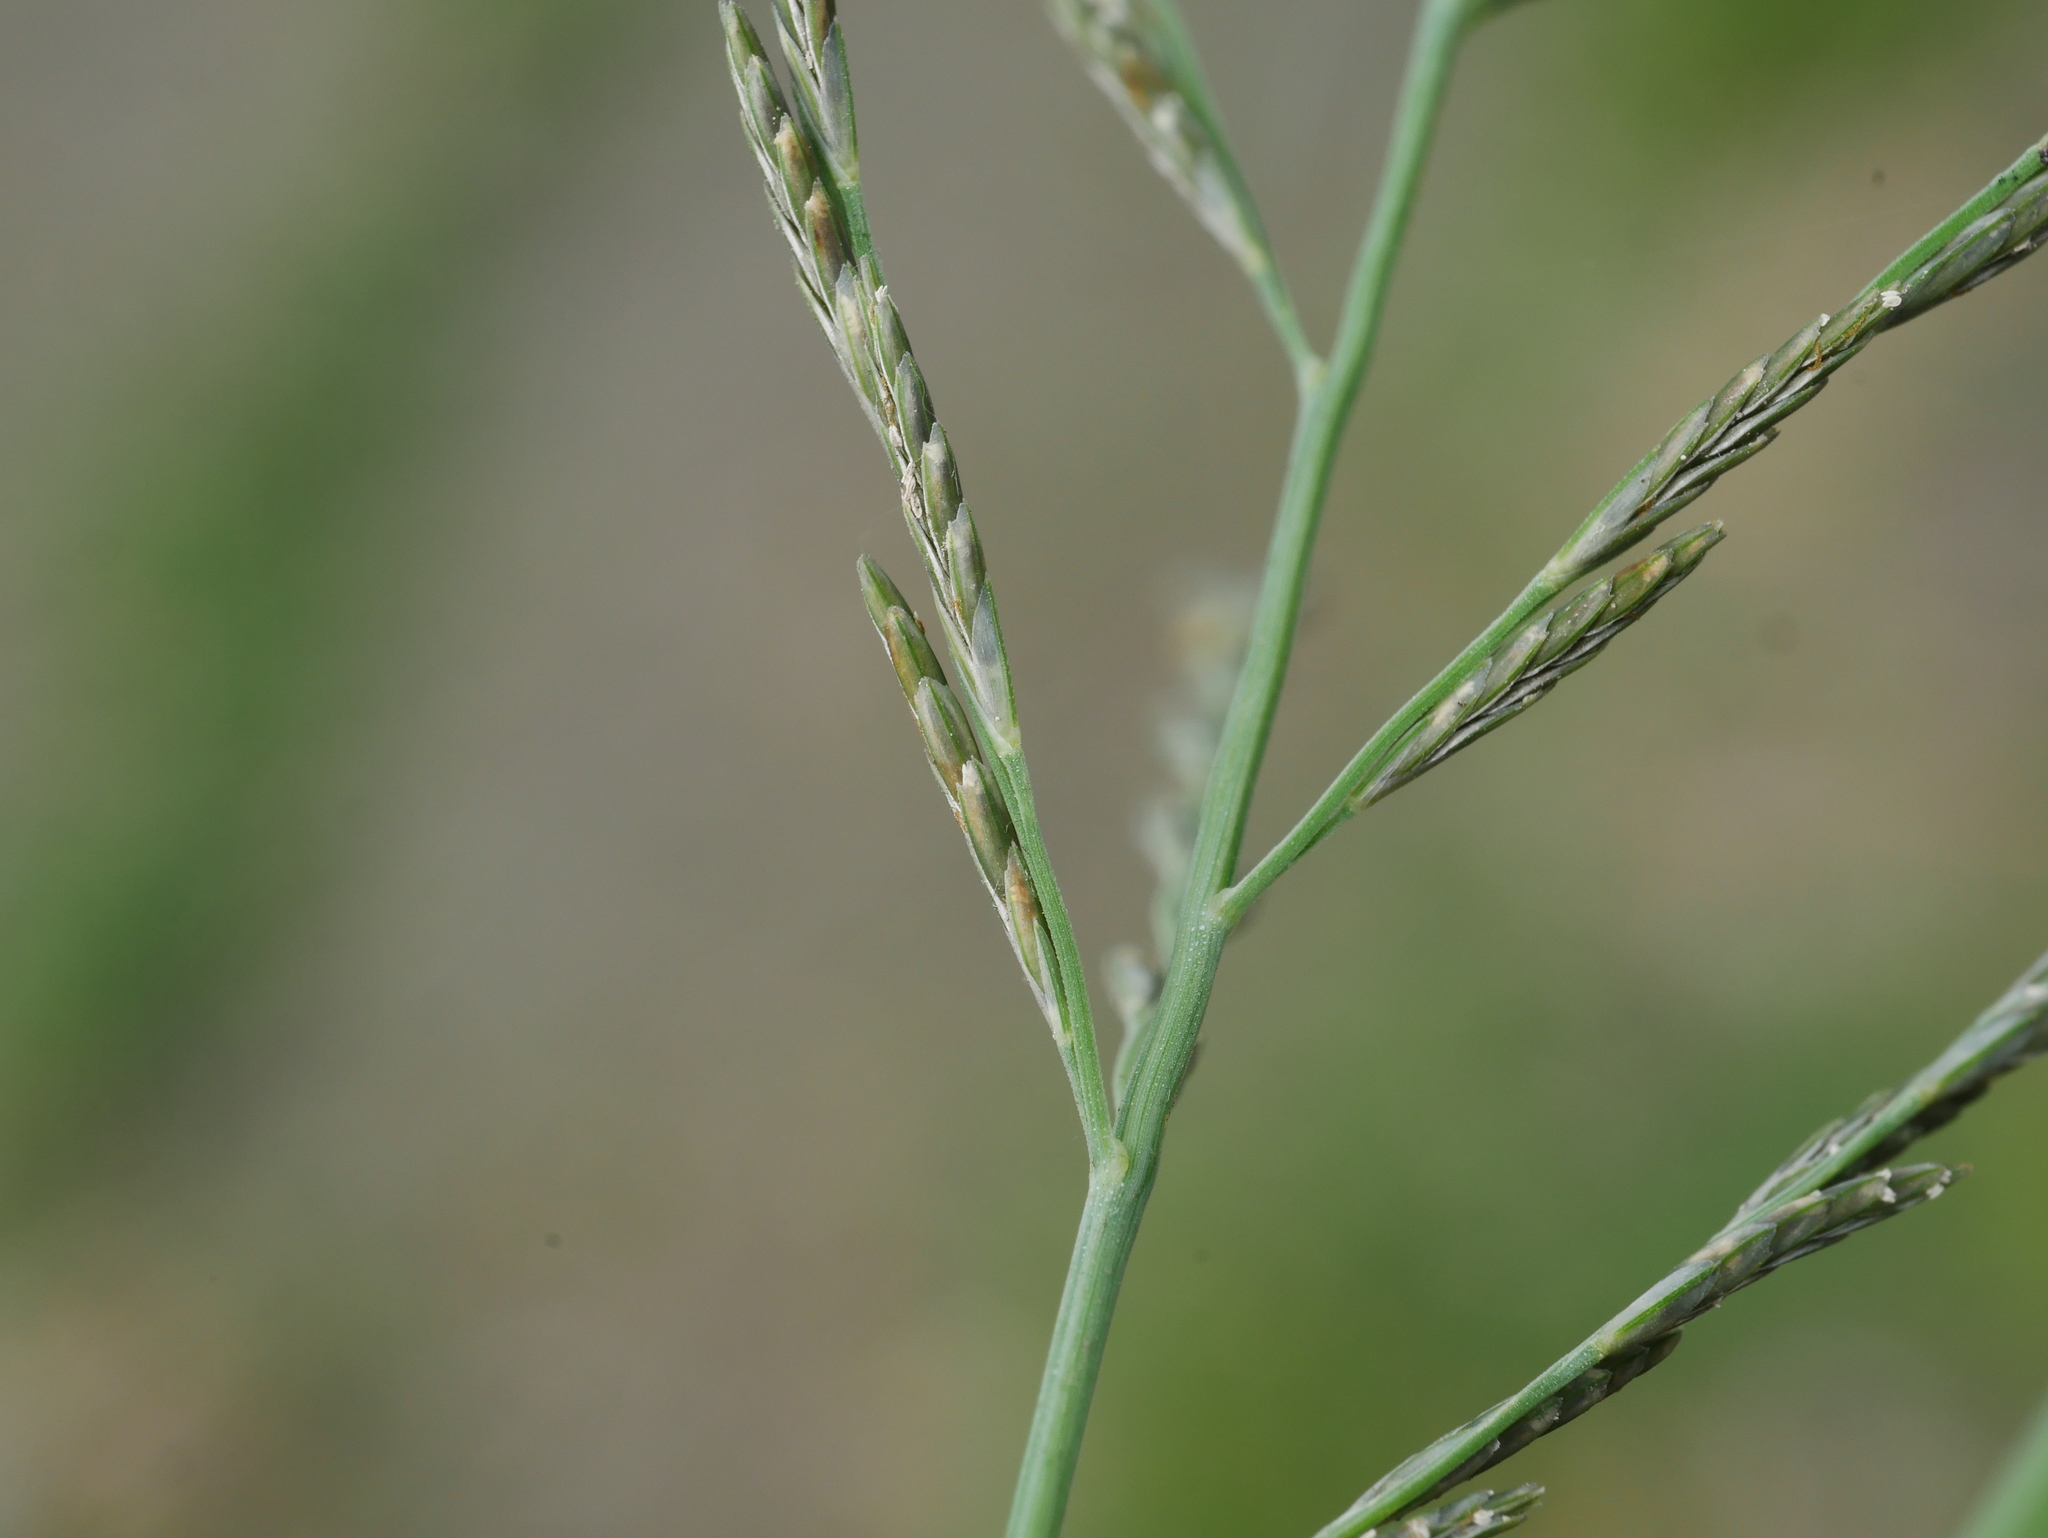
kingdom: Plantae
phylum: Tracheophyta
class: Liliopsida
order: Poales
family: Poaceae
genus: Diplachne
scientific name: Diplachne fusca
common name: Brown beetle grass
